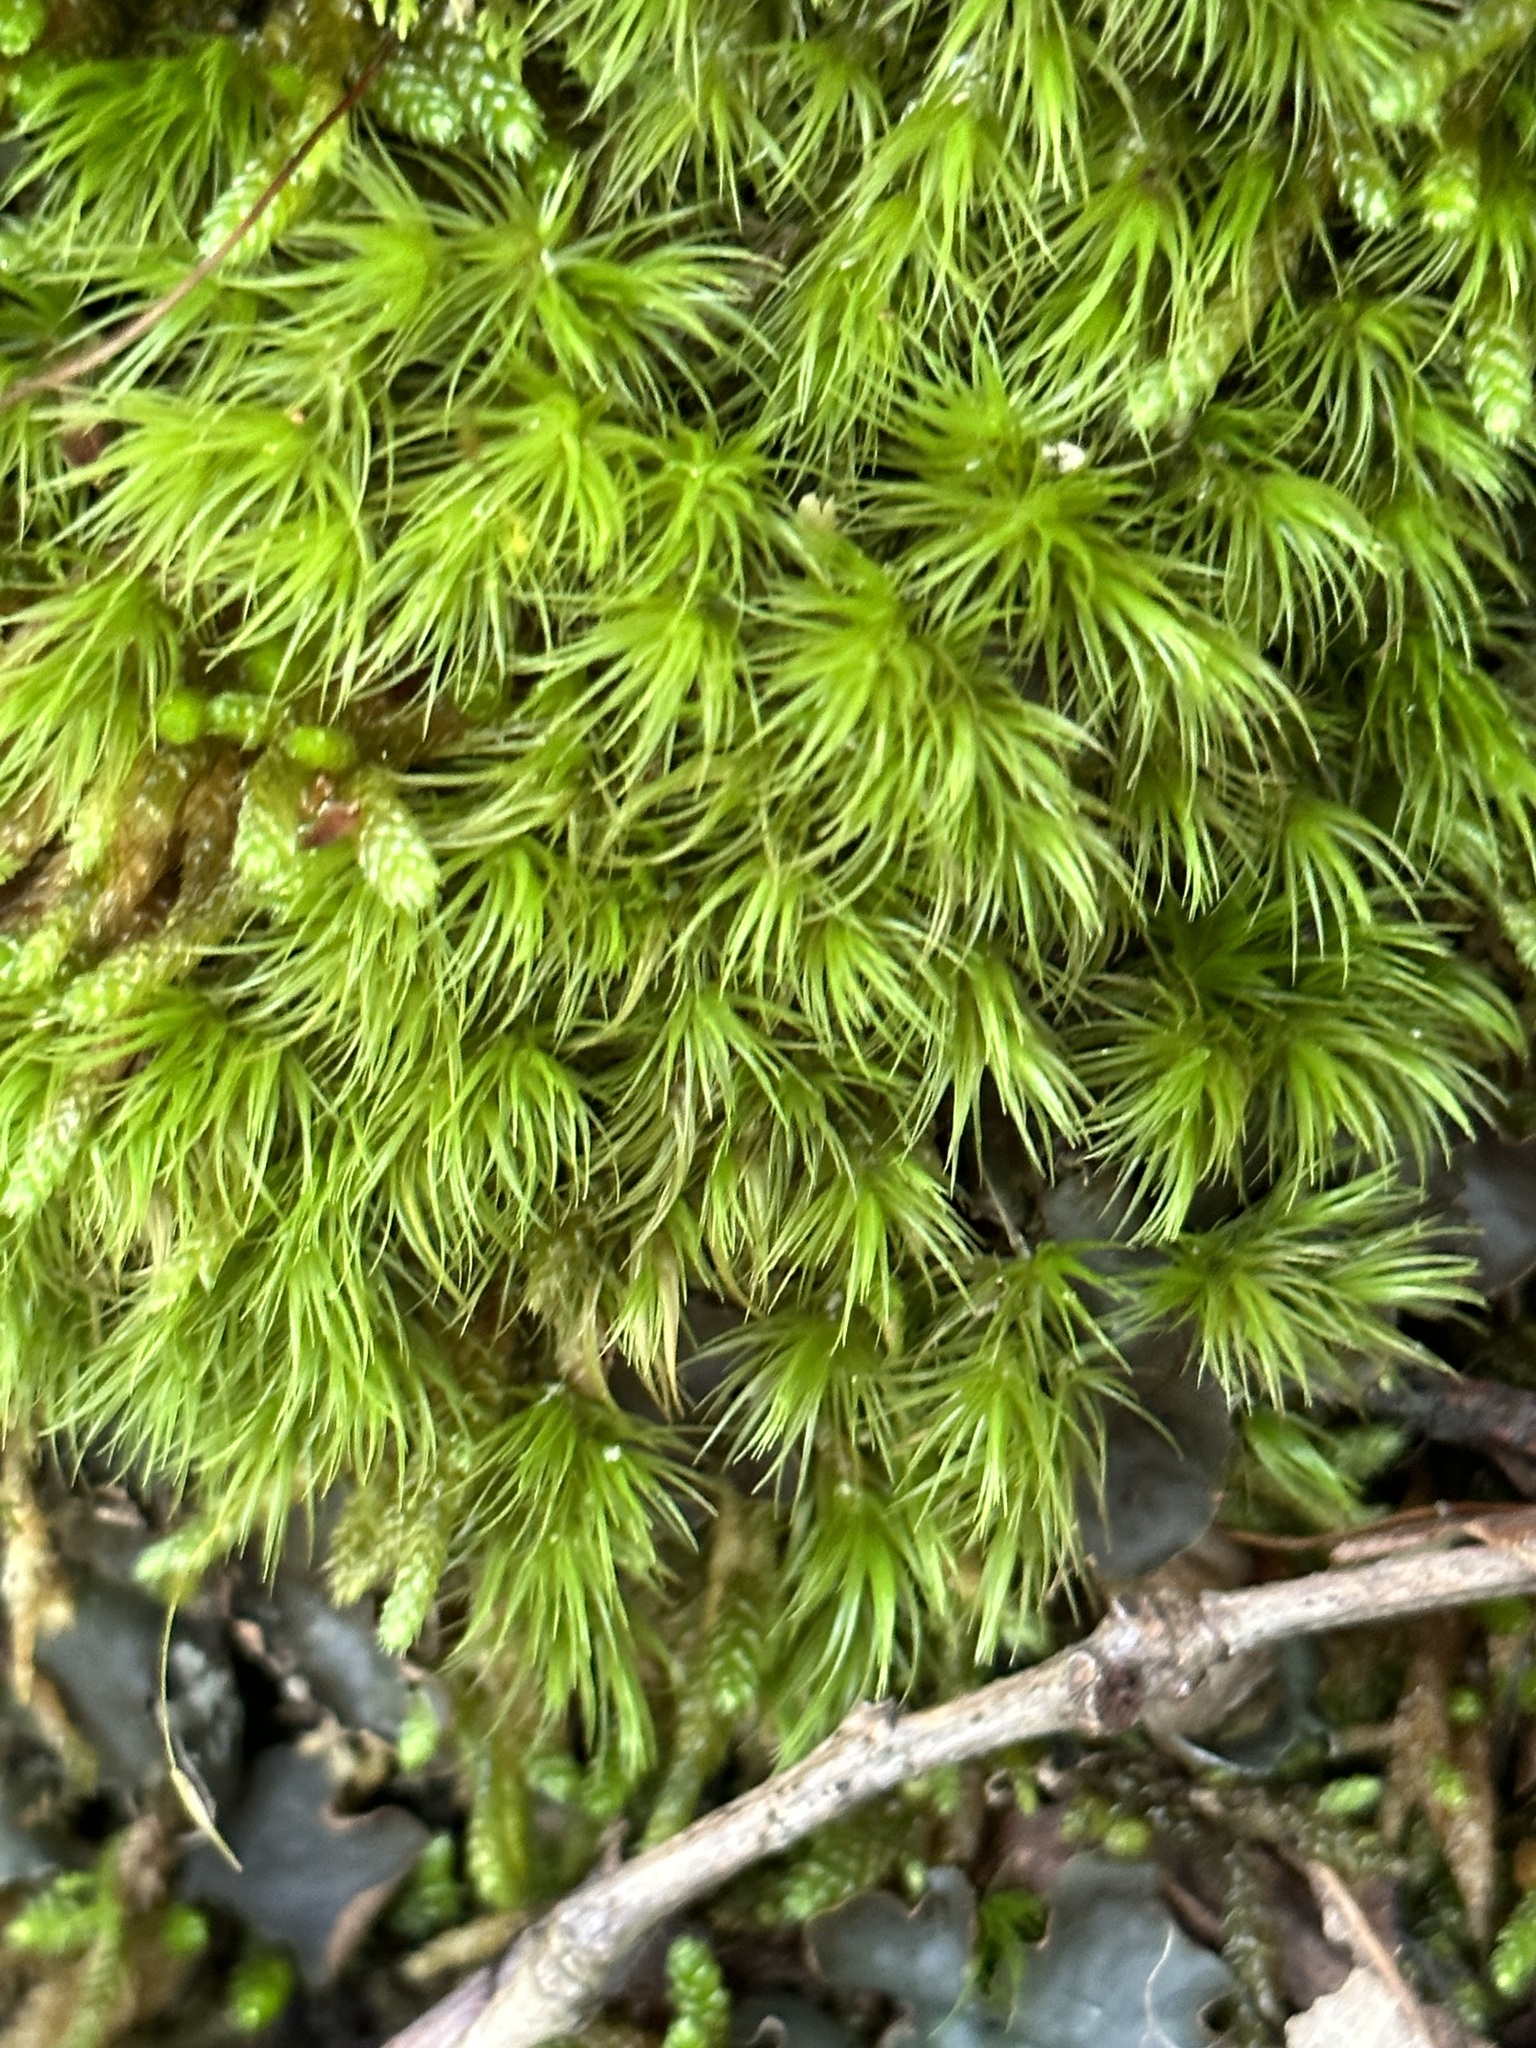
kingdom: Plantae
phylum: Bryophyta
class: Bryopsida
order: Dicranales
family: Dicranaceae
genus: Dicranum
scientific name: Dicranum scoparium
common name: Broom fork-moss
